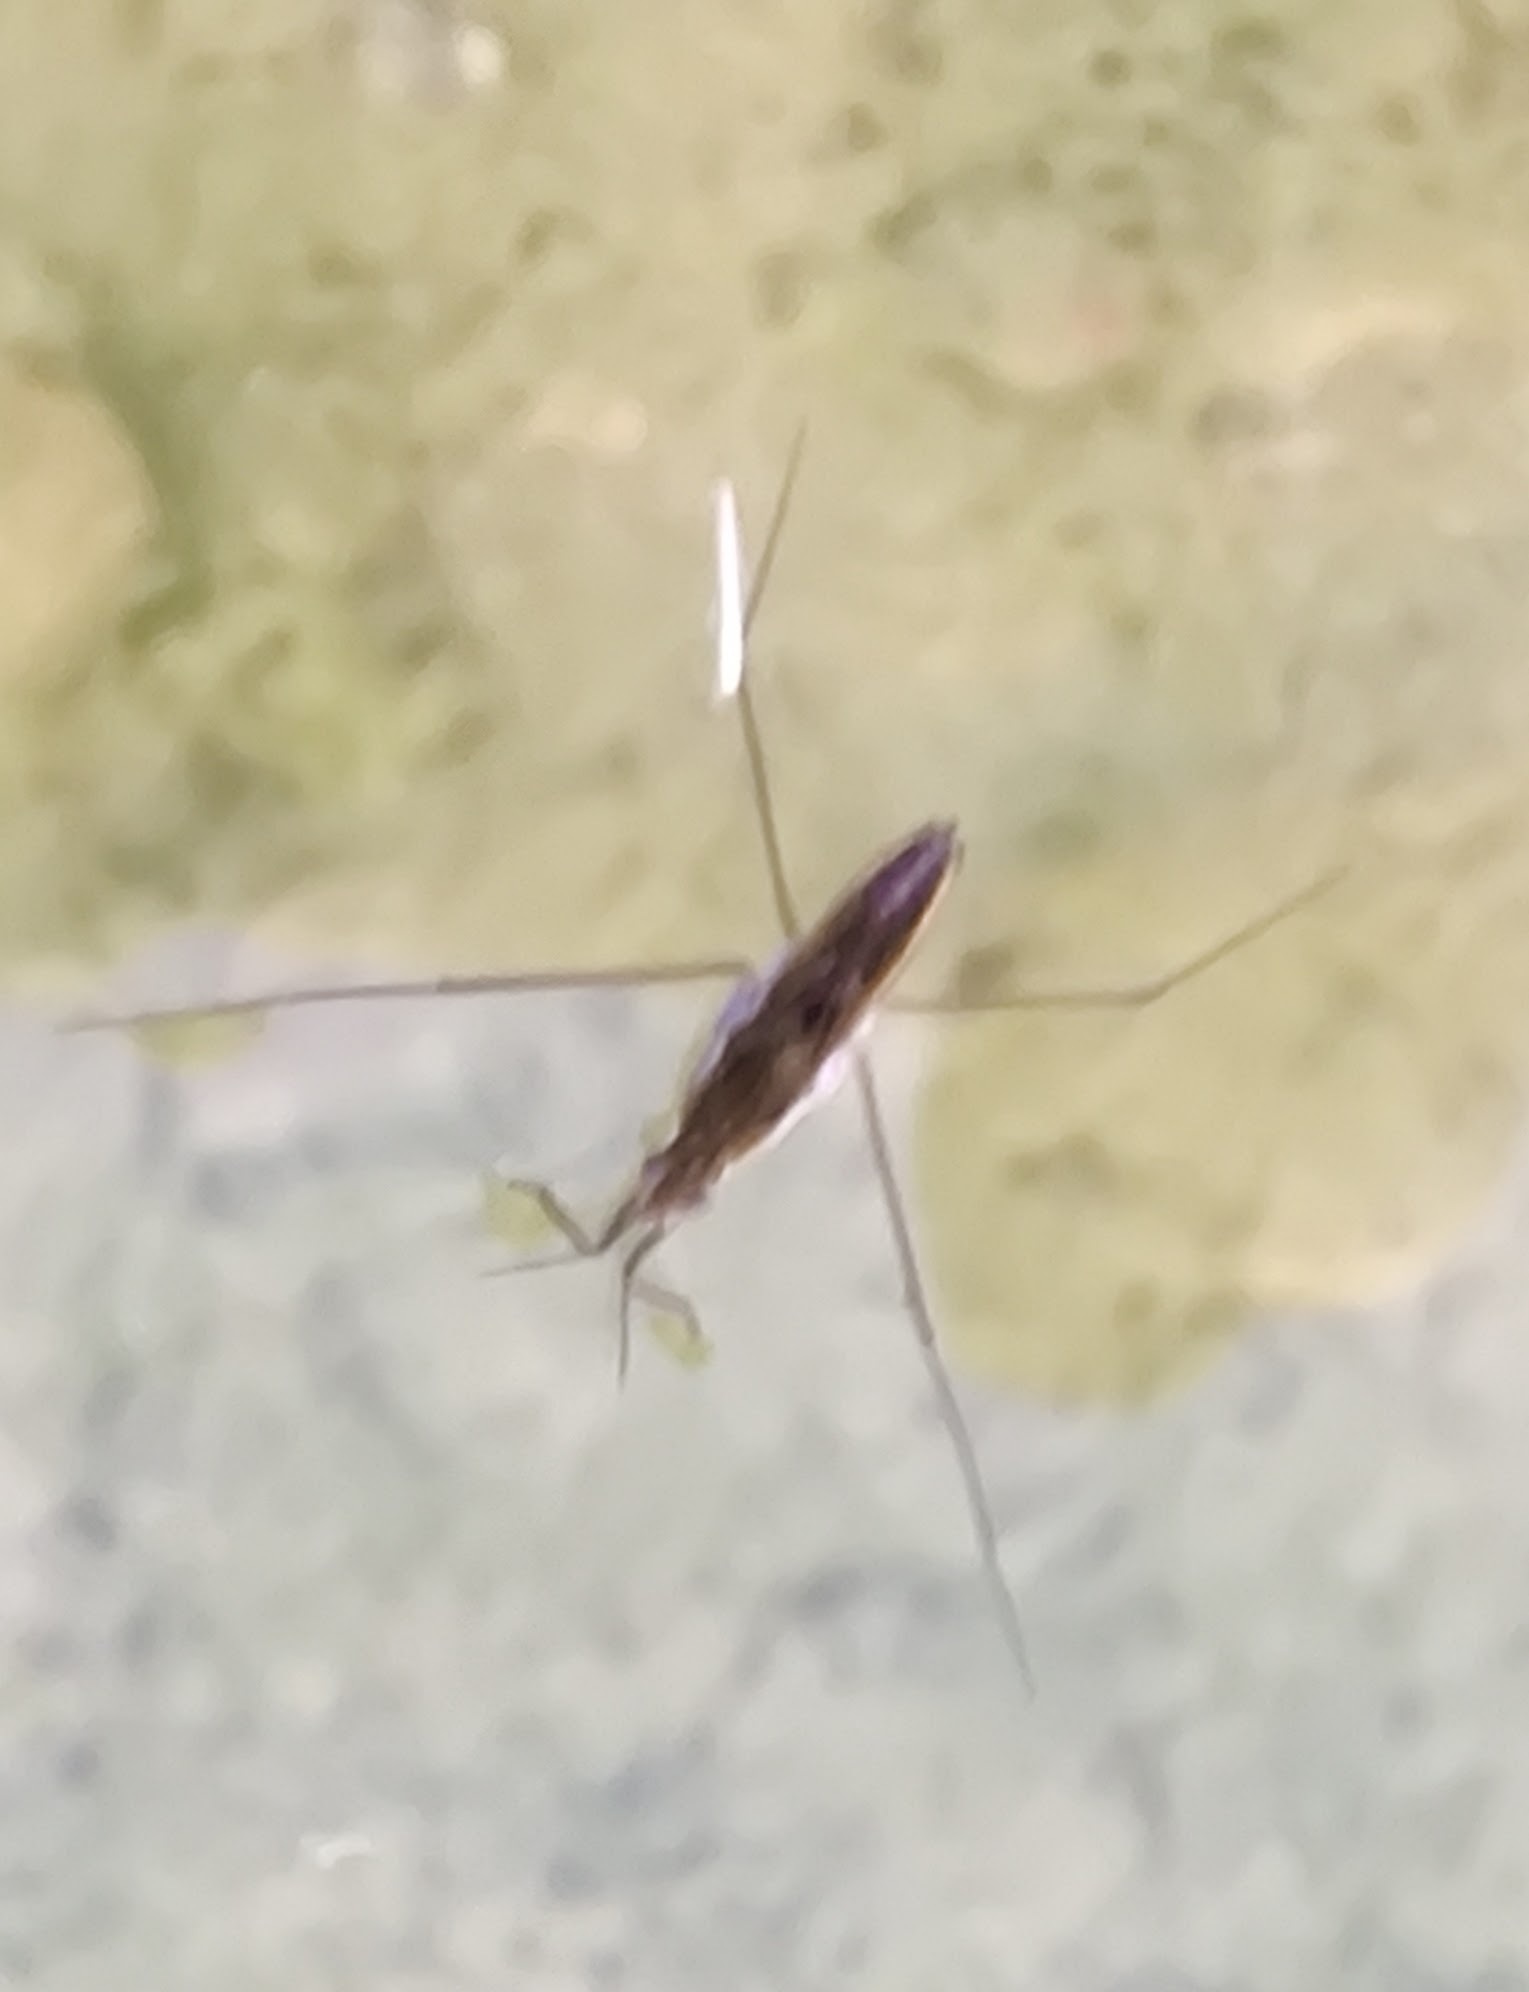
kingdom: Animalia
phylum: Arthropoda
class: Insecta
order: Hemiptera
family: Gerridae
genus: Gerris
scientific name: Gerris
